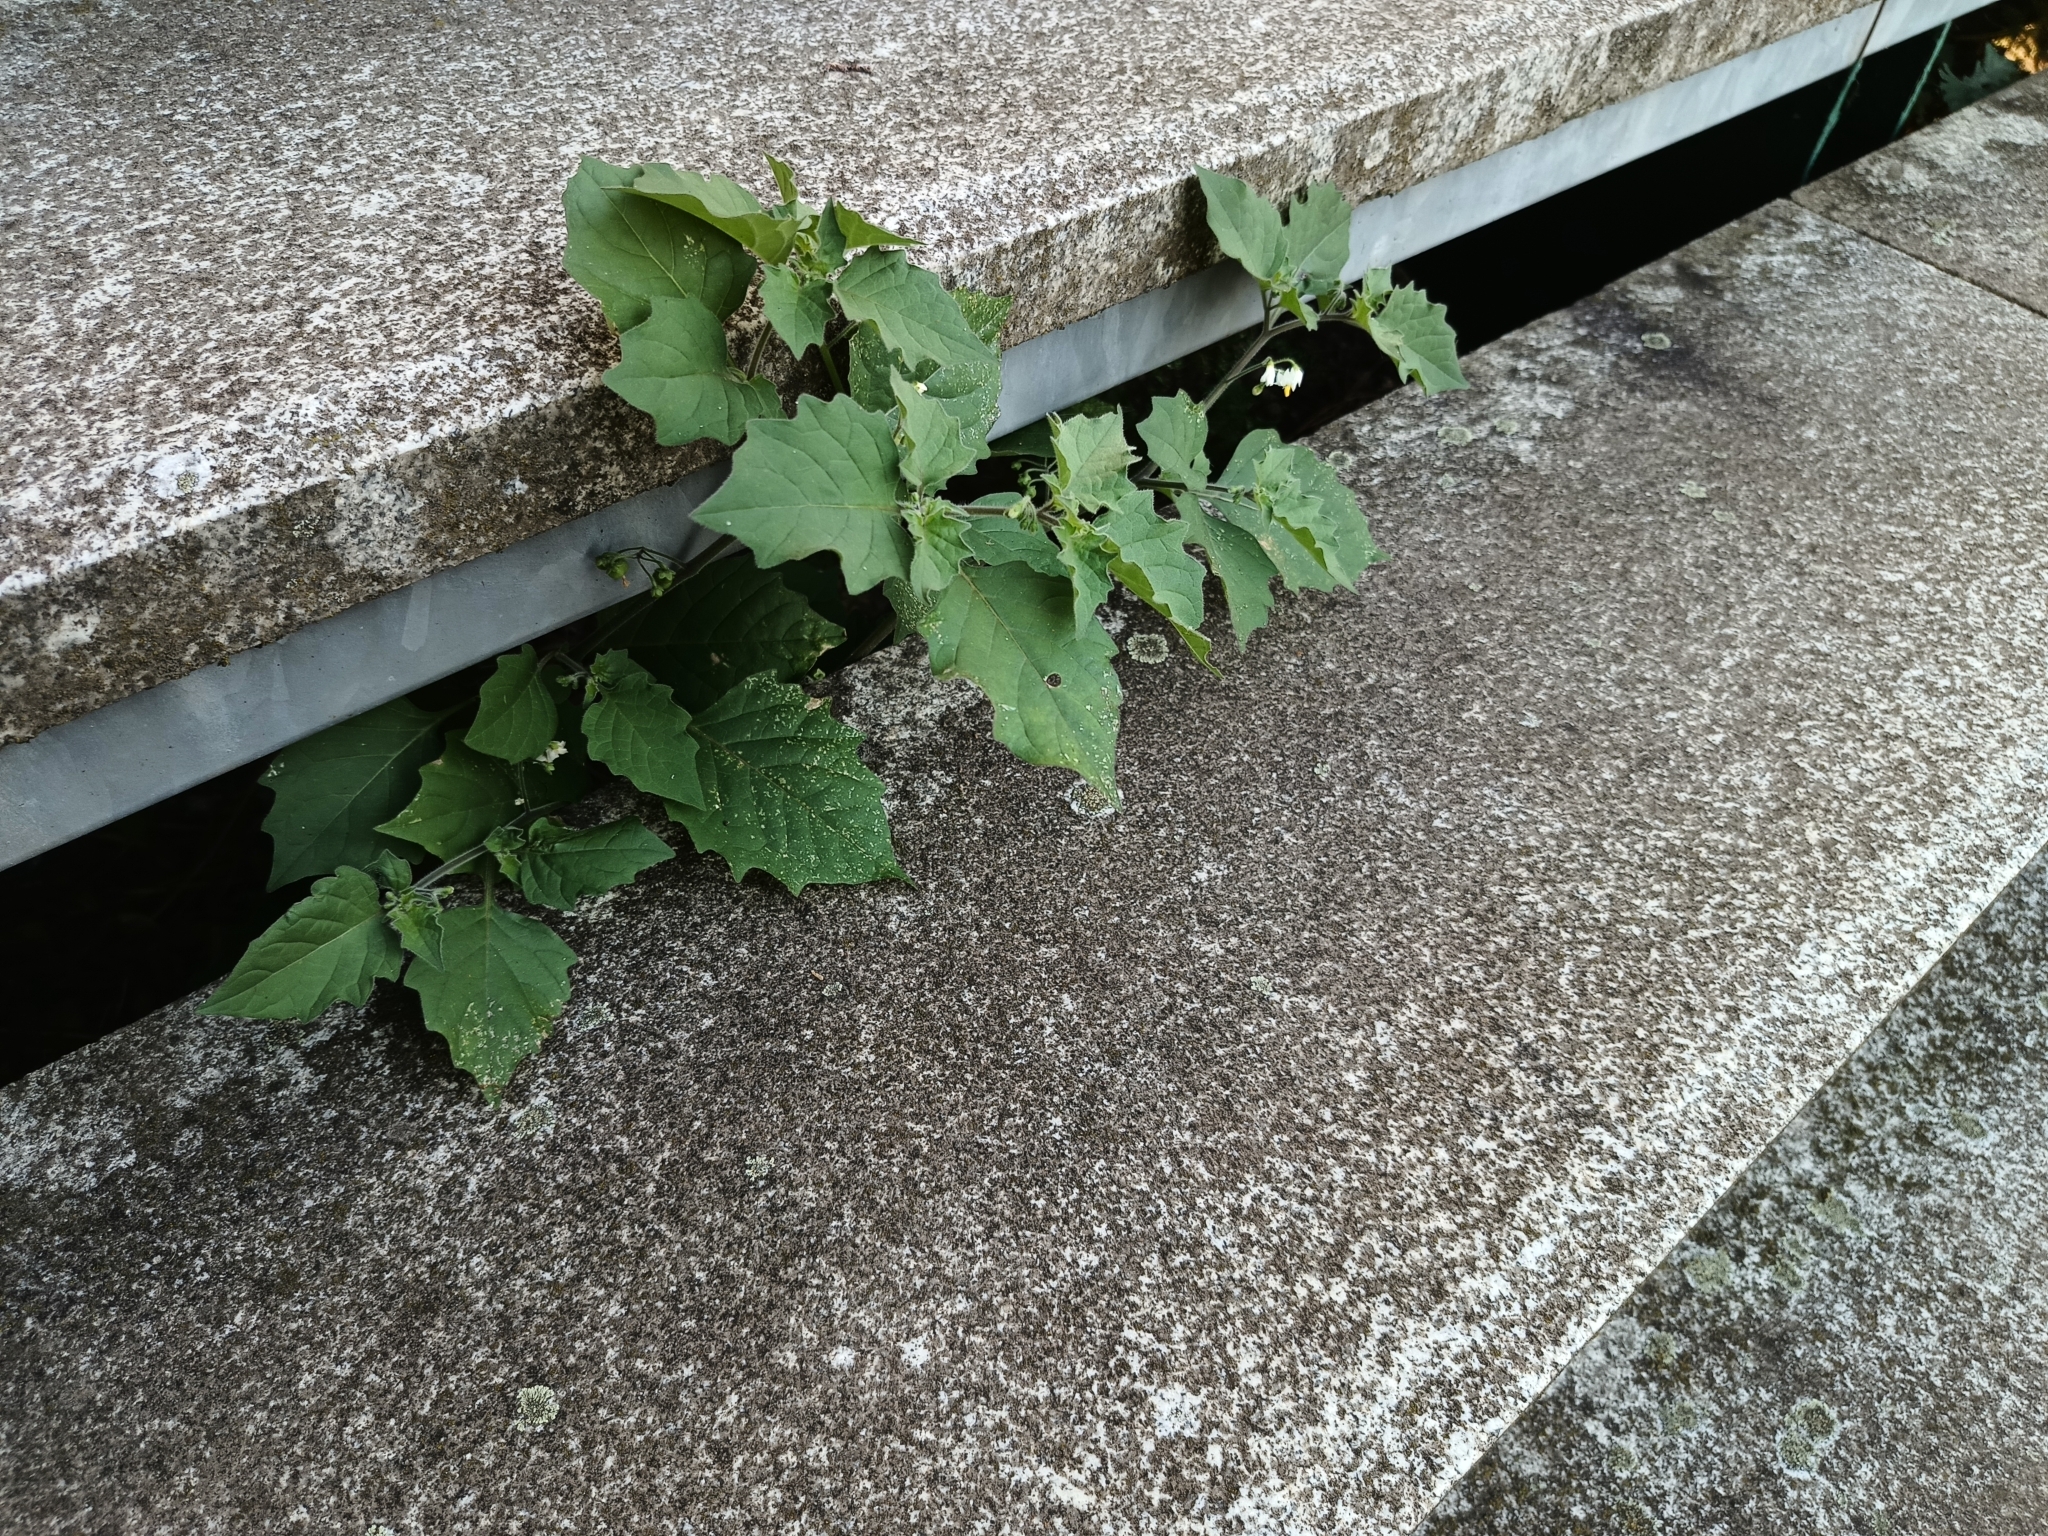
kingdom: Plantae
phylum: Tracheophyta
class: Magnoliopsida
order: Solanales
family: Solanaceae
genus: Solanum
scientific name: Solanum decipiens
